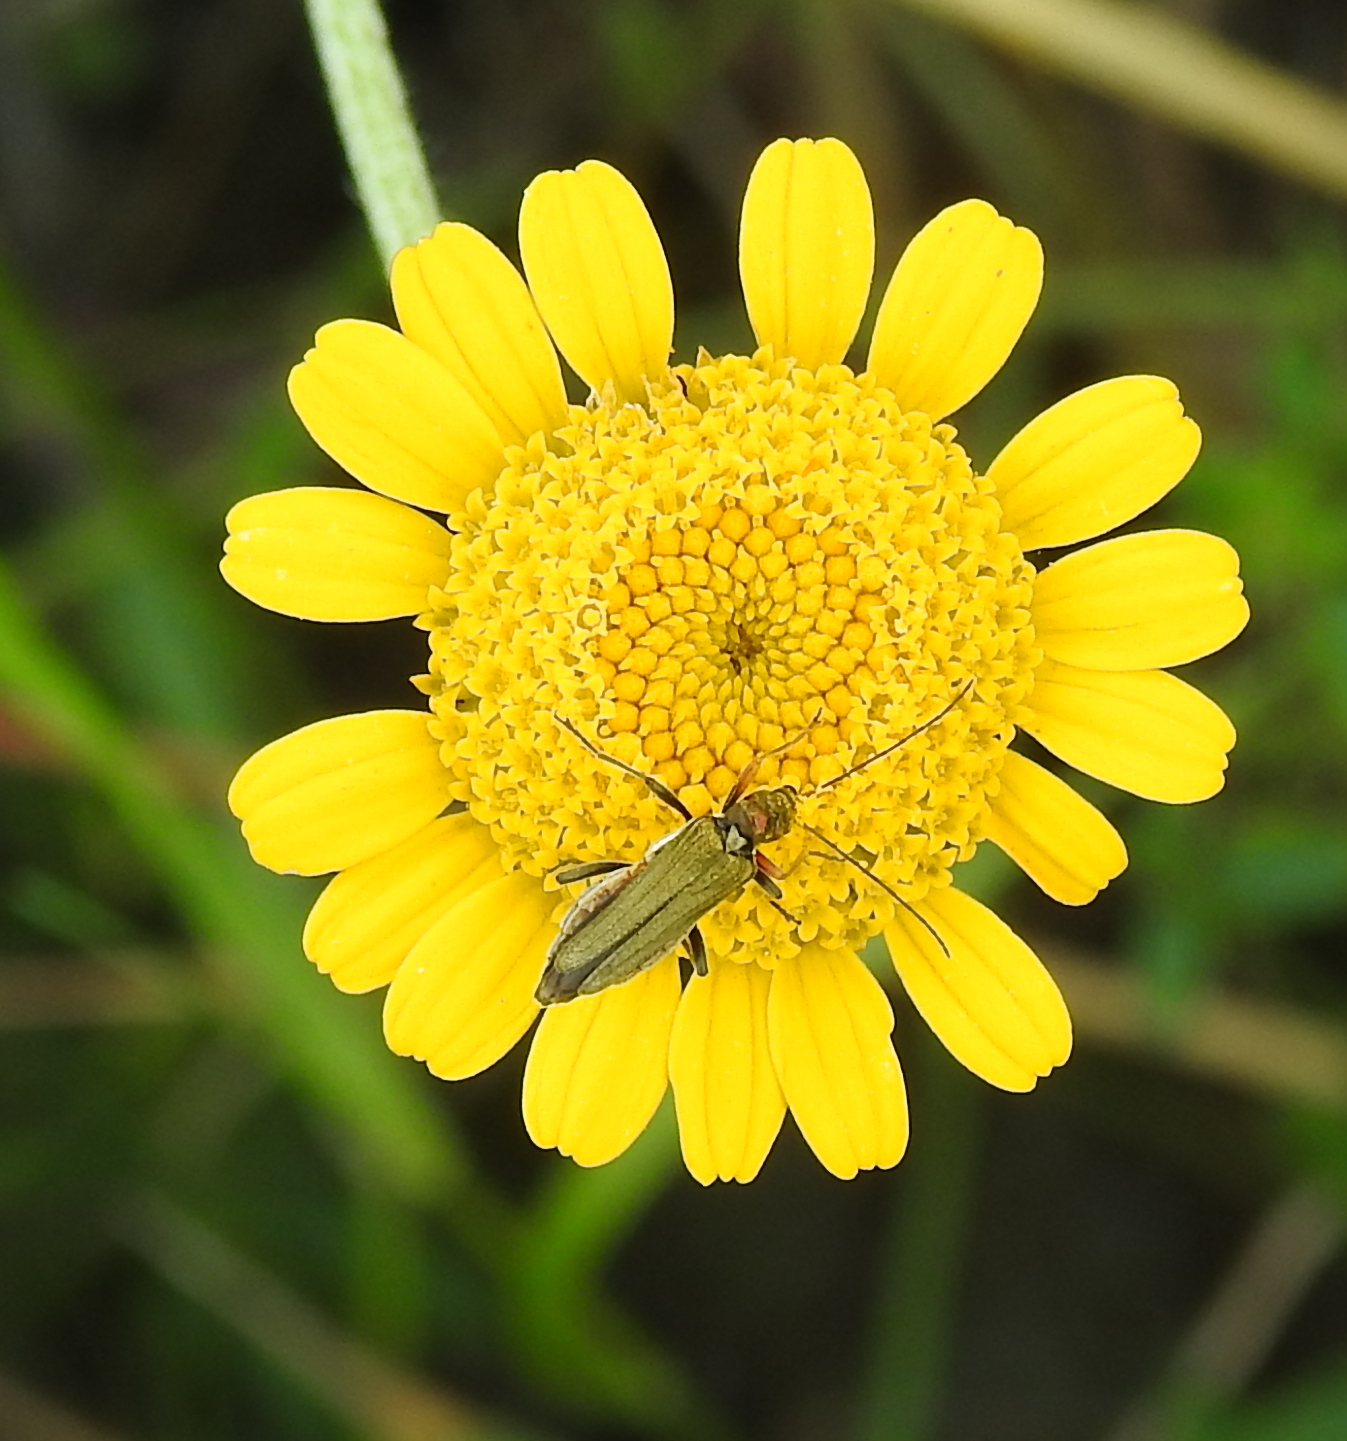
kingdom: Animalia
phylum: Arthropoda
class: Insecta
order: Coleoptera
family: Oedemeridae
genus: Oedemera
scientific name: Oedemera flavipes
